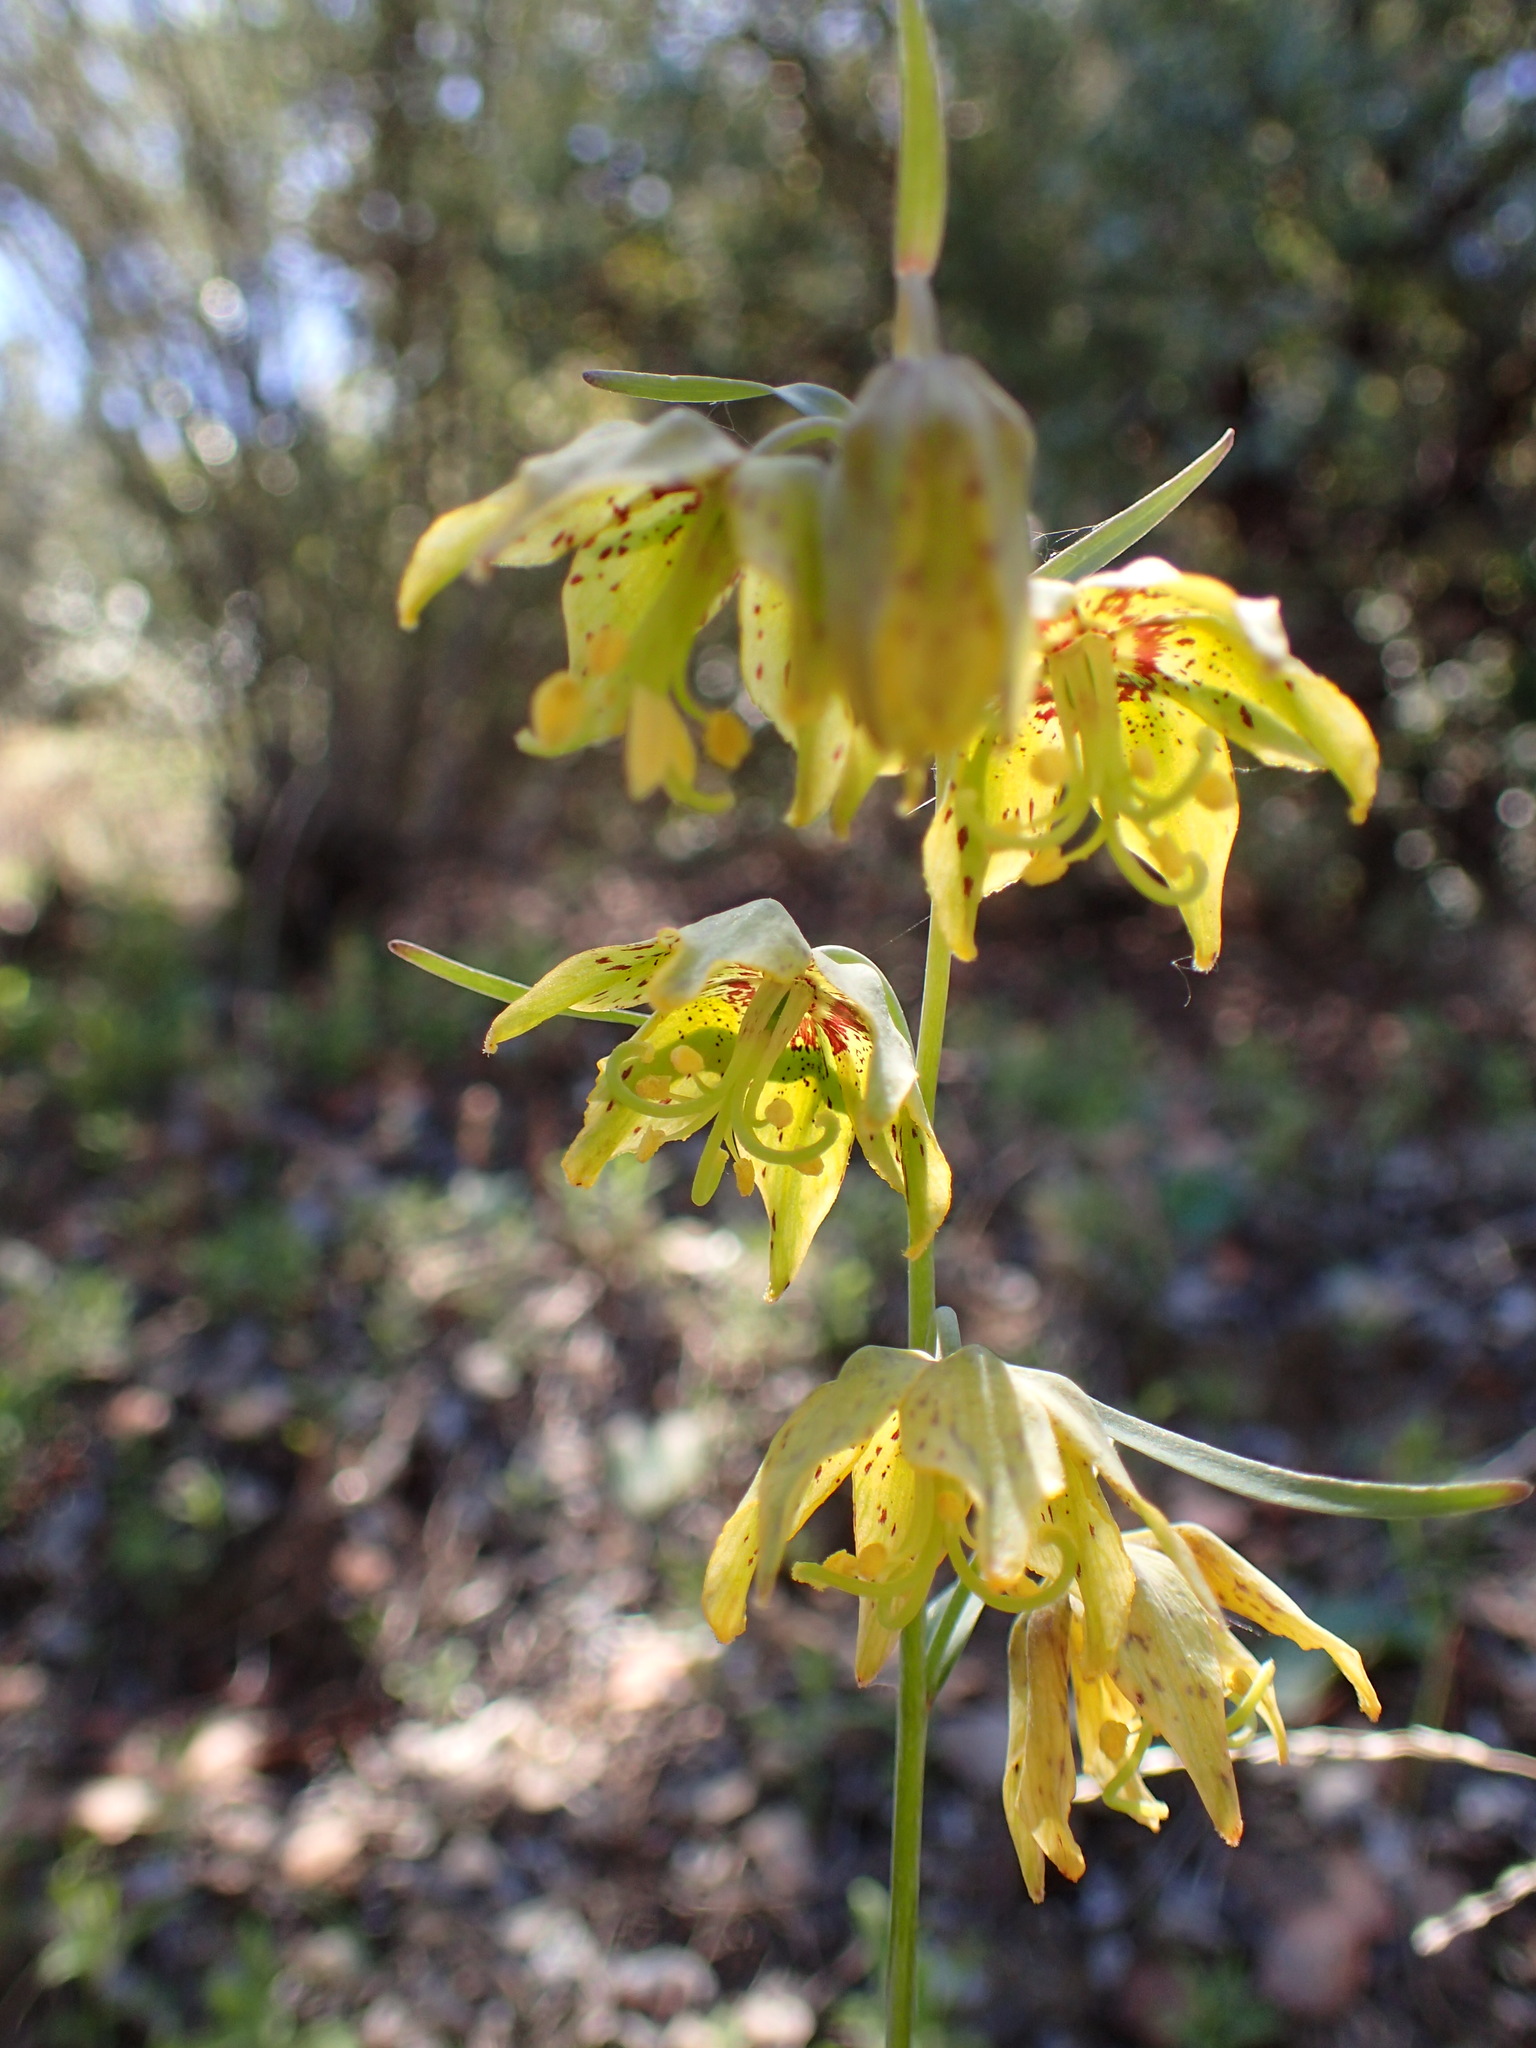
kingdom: Plantae
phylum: Tracheophyta
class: Liliopsida
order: Liliales
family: Liliaceae
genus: Fritillaria
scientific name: Fritillaria ojaiensis
